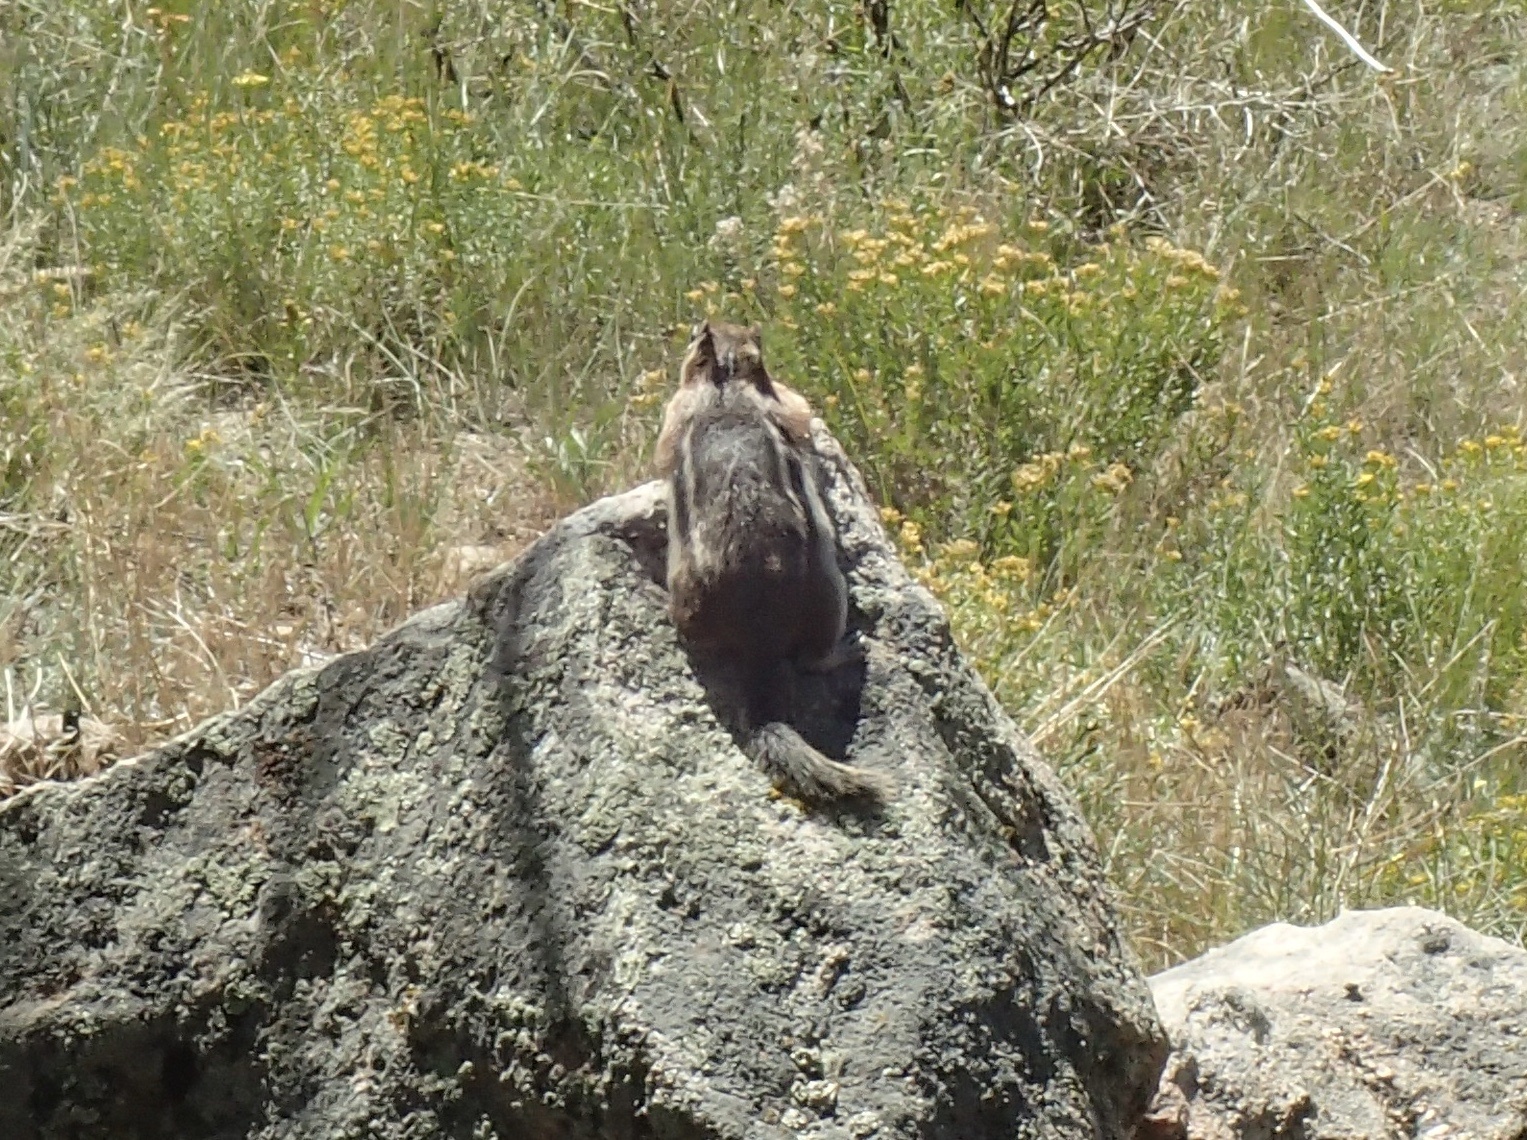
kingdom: Animalia
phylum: Chordata
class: Mammalia
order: Rodentia
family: Sciuridae
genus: Callospermophilus
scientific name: Callospermophilus lateralis
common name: Golden-mantled ground squirrel
